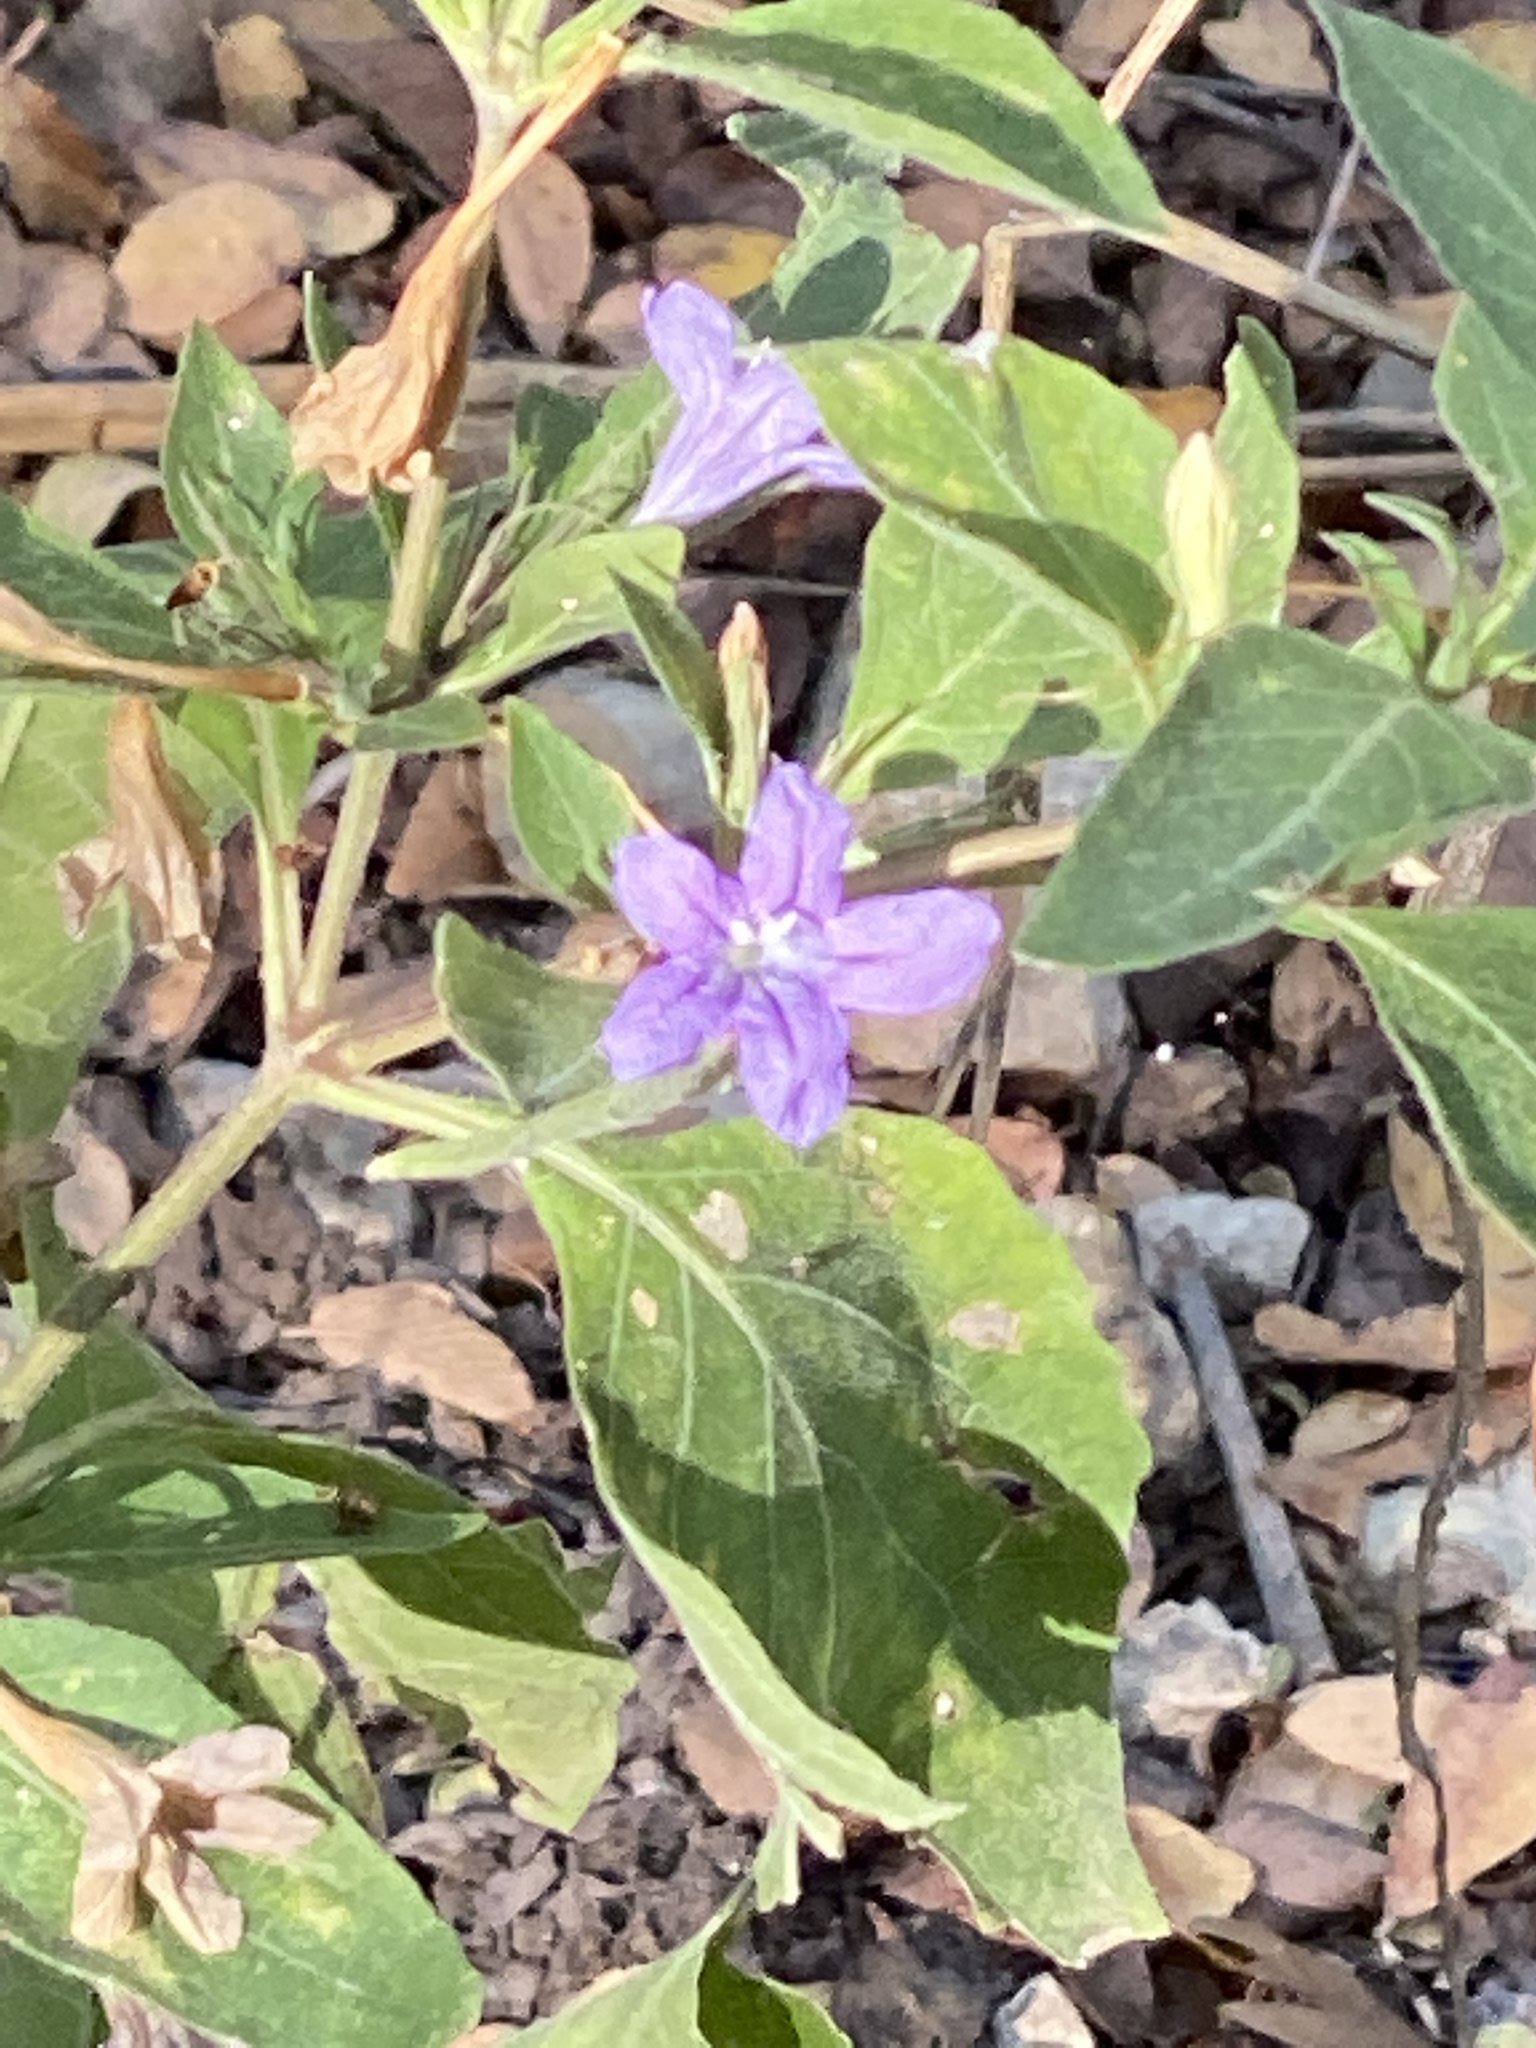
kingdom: Plantae
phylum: Tracheophyta
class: Magnoliopsida
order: Lamiales
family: Acanthaceae
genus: Ruellia
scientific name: Ruellia drummondiana
